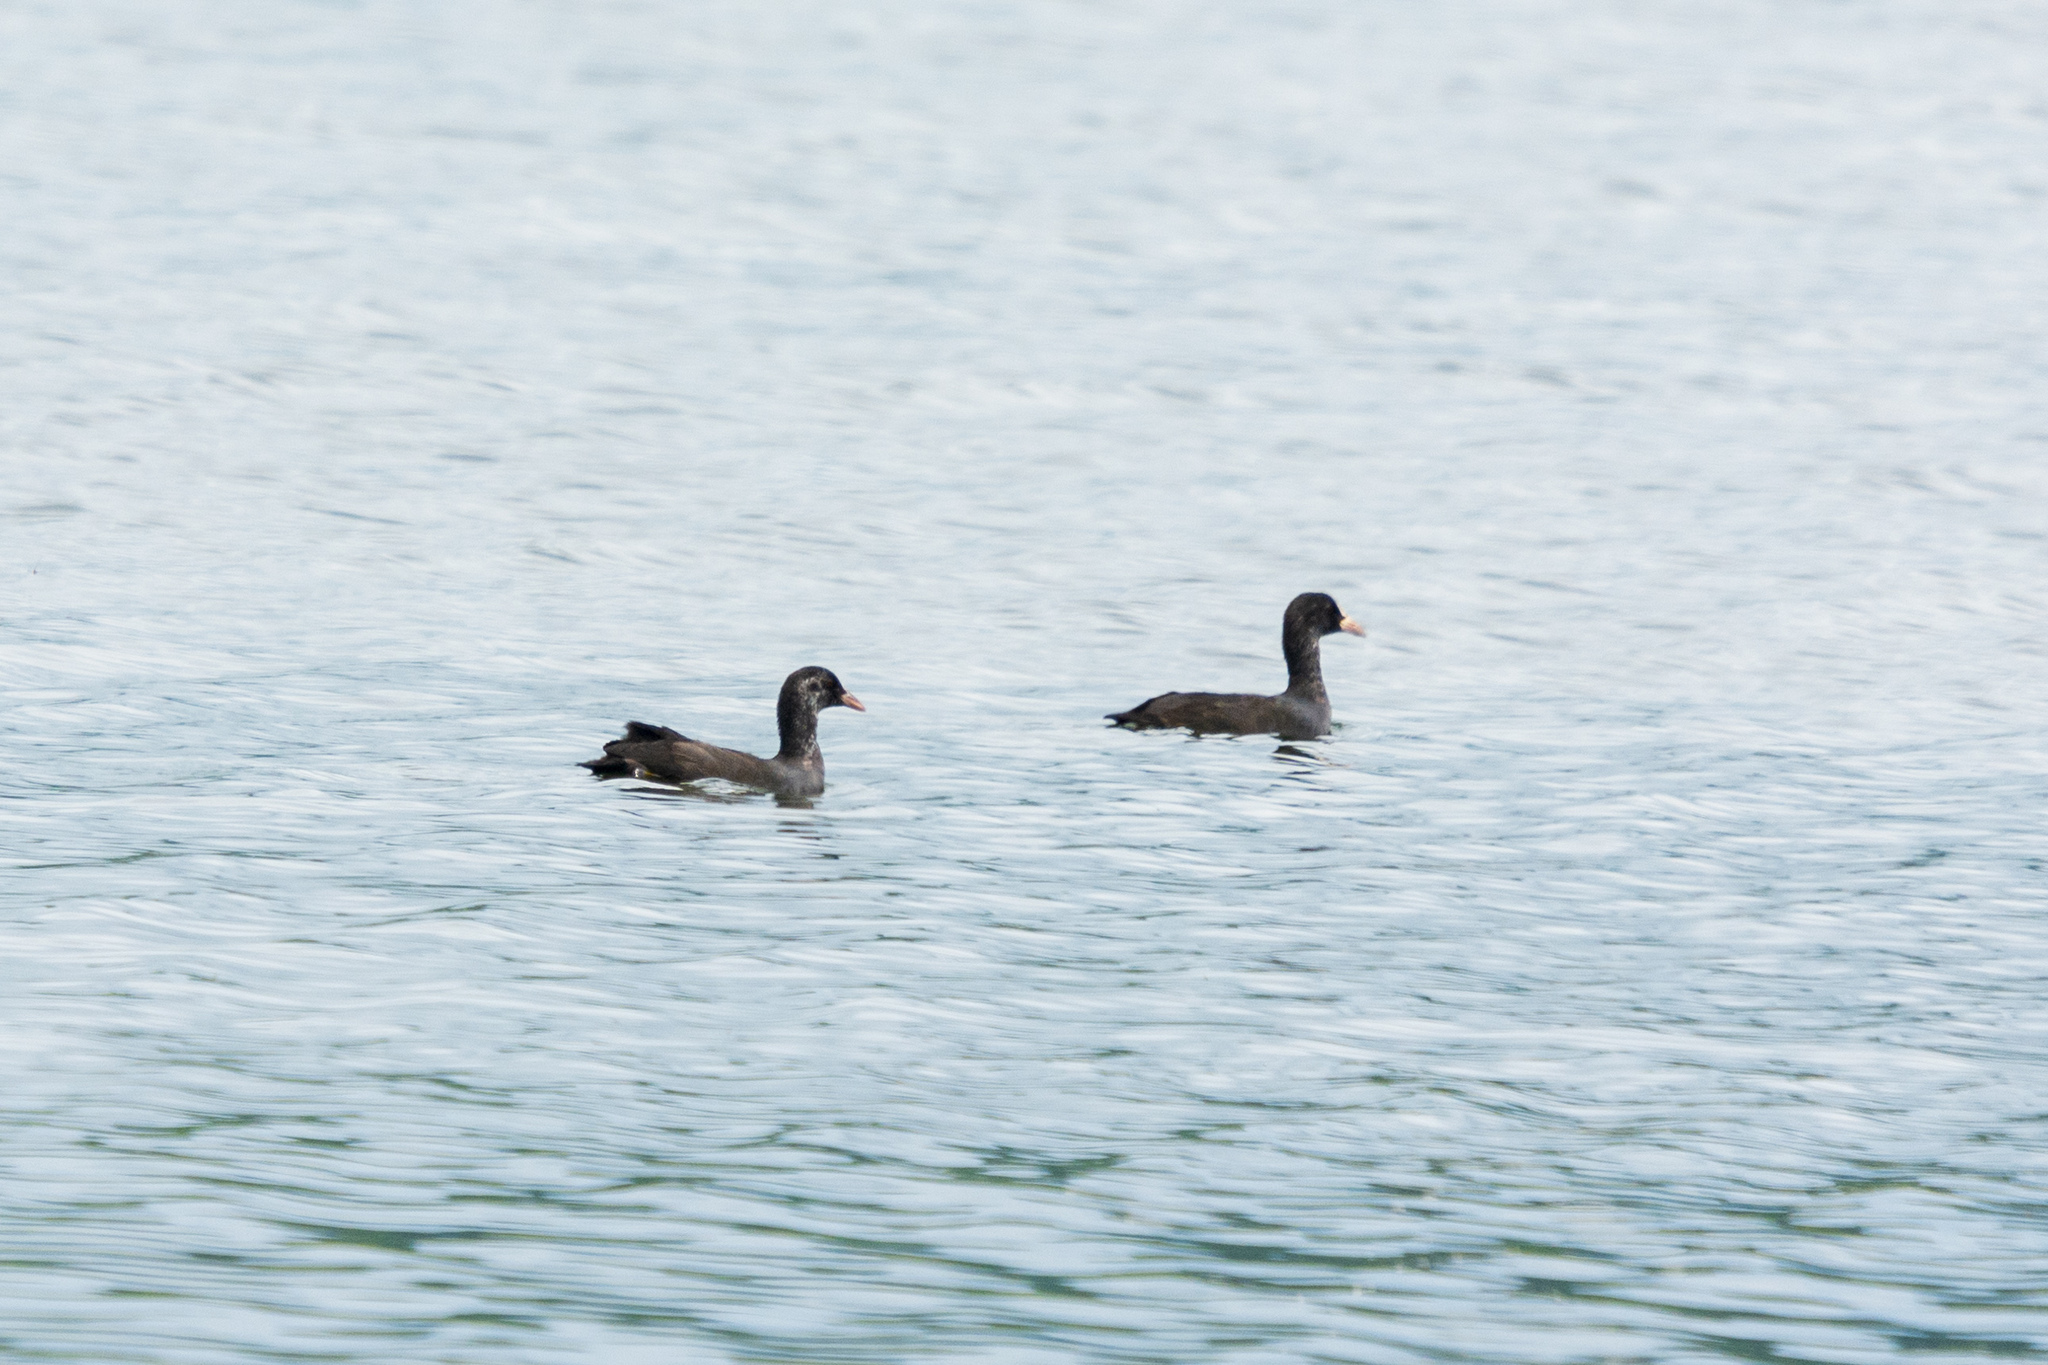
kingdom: Animalia
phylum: Chordata
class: Aves
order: Gruiformes
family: Rallidae
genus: Fulica
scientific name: Fulica atra
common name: Eurasian coot
